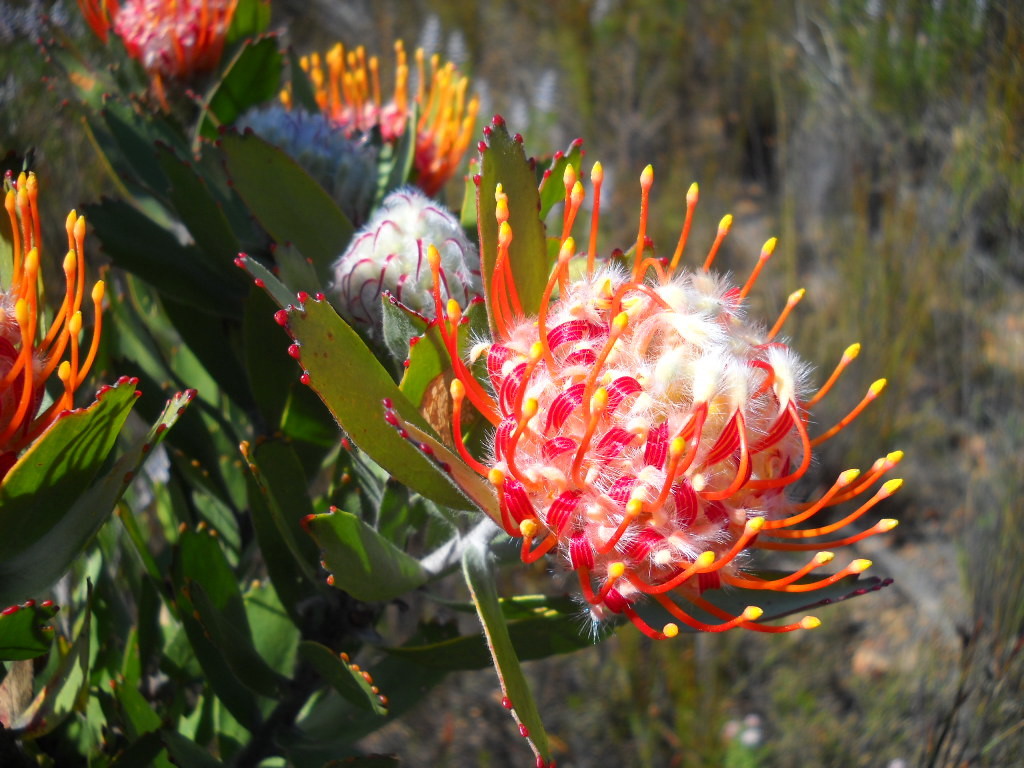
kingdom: Plantae
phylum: Tracheophyta
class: Magnoliopsida
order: Proteales
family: Proteaceae
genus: Leucospermum
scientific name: Leucospermum pluridens
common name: Robinson pincushion
